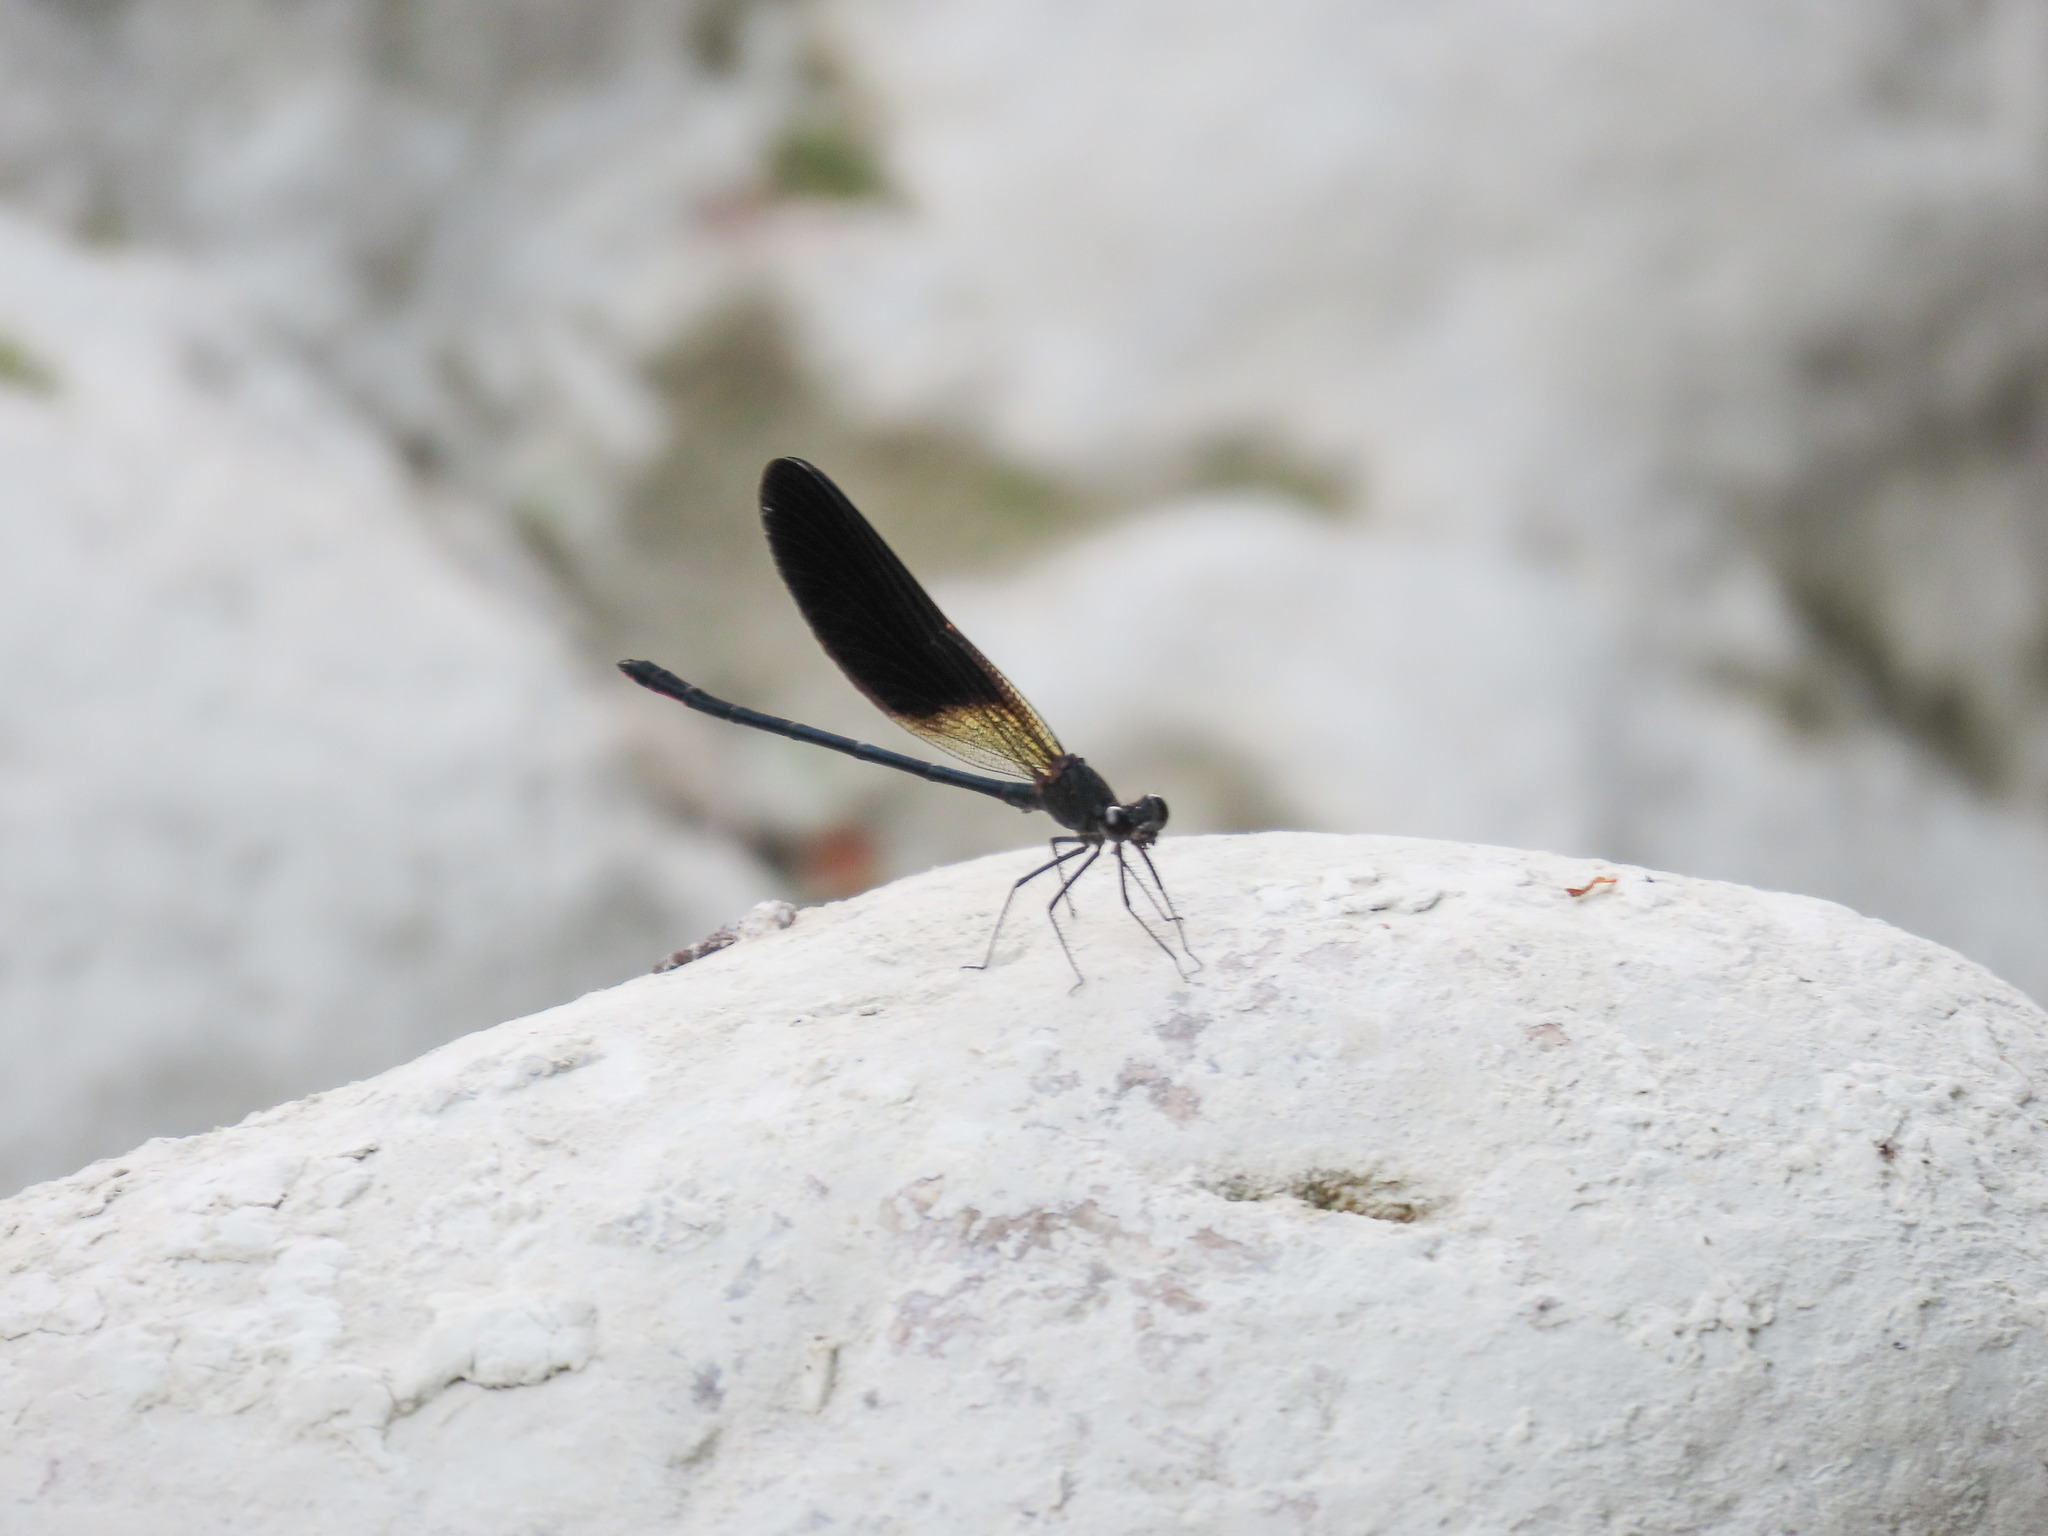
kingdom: Animalia
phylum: Arthropoda
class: Insecta
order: Odonata
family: Calopterygidae
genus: Calopteryx
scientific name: Calopteryx haemorrhoidalis
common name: Copper demoiselle
